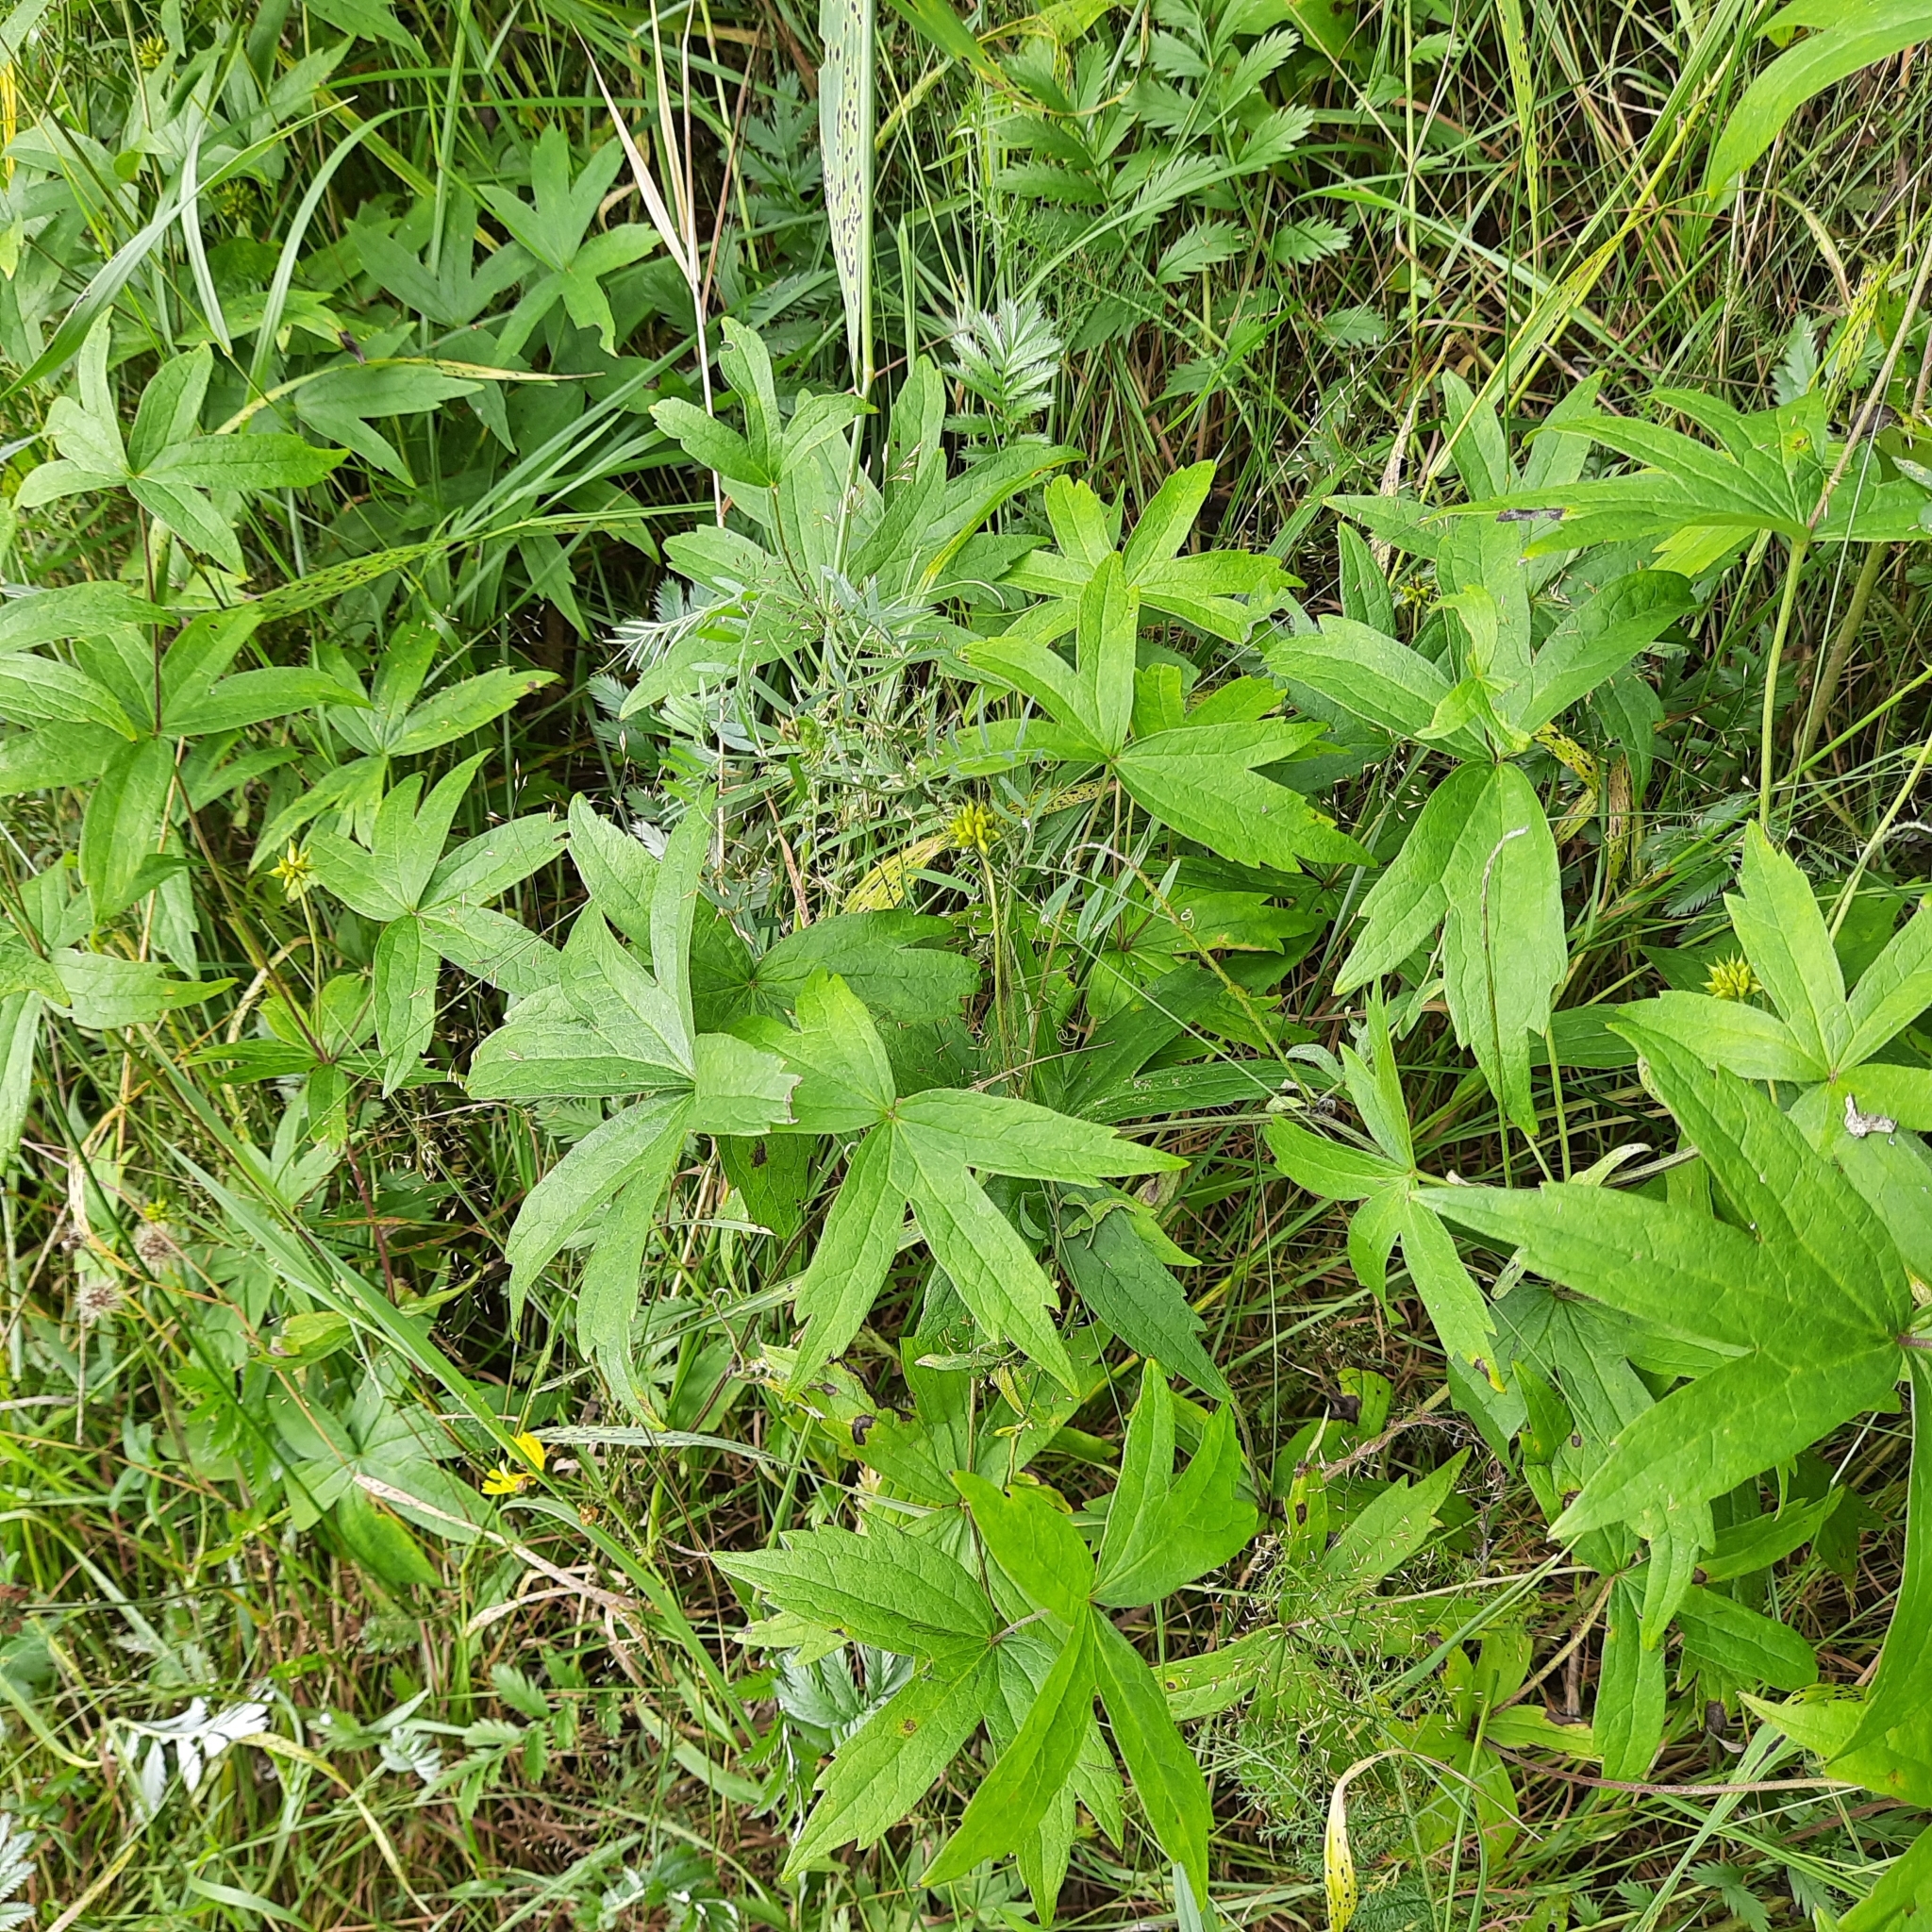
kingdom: Plantae
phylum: Tracheophyta
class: Magnoliopsida
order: Ranunculales
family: Ranunculaceae
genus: Anemonastrum
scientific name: Anemonastrum dichotomum
